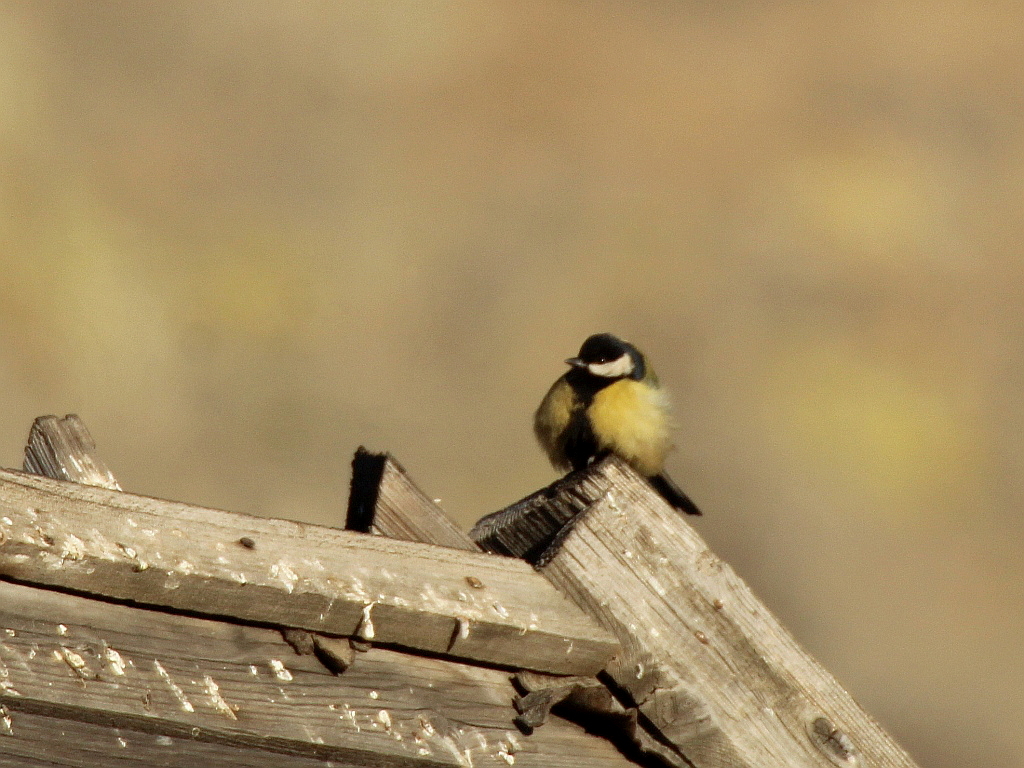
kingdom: Animalia
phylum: Chordata
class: Aves
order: Passeriformes
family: Paridae
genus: Parus
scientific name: Parus major
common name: Great tit
